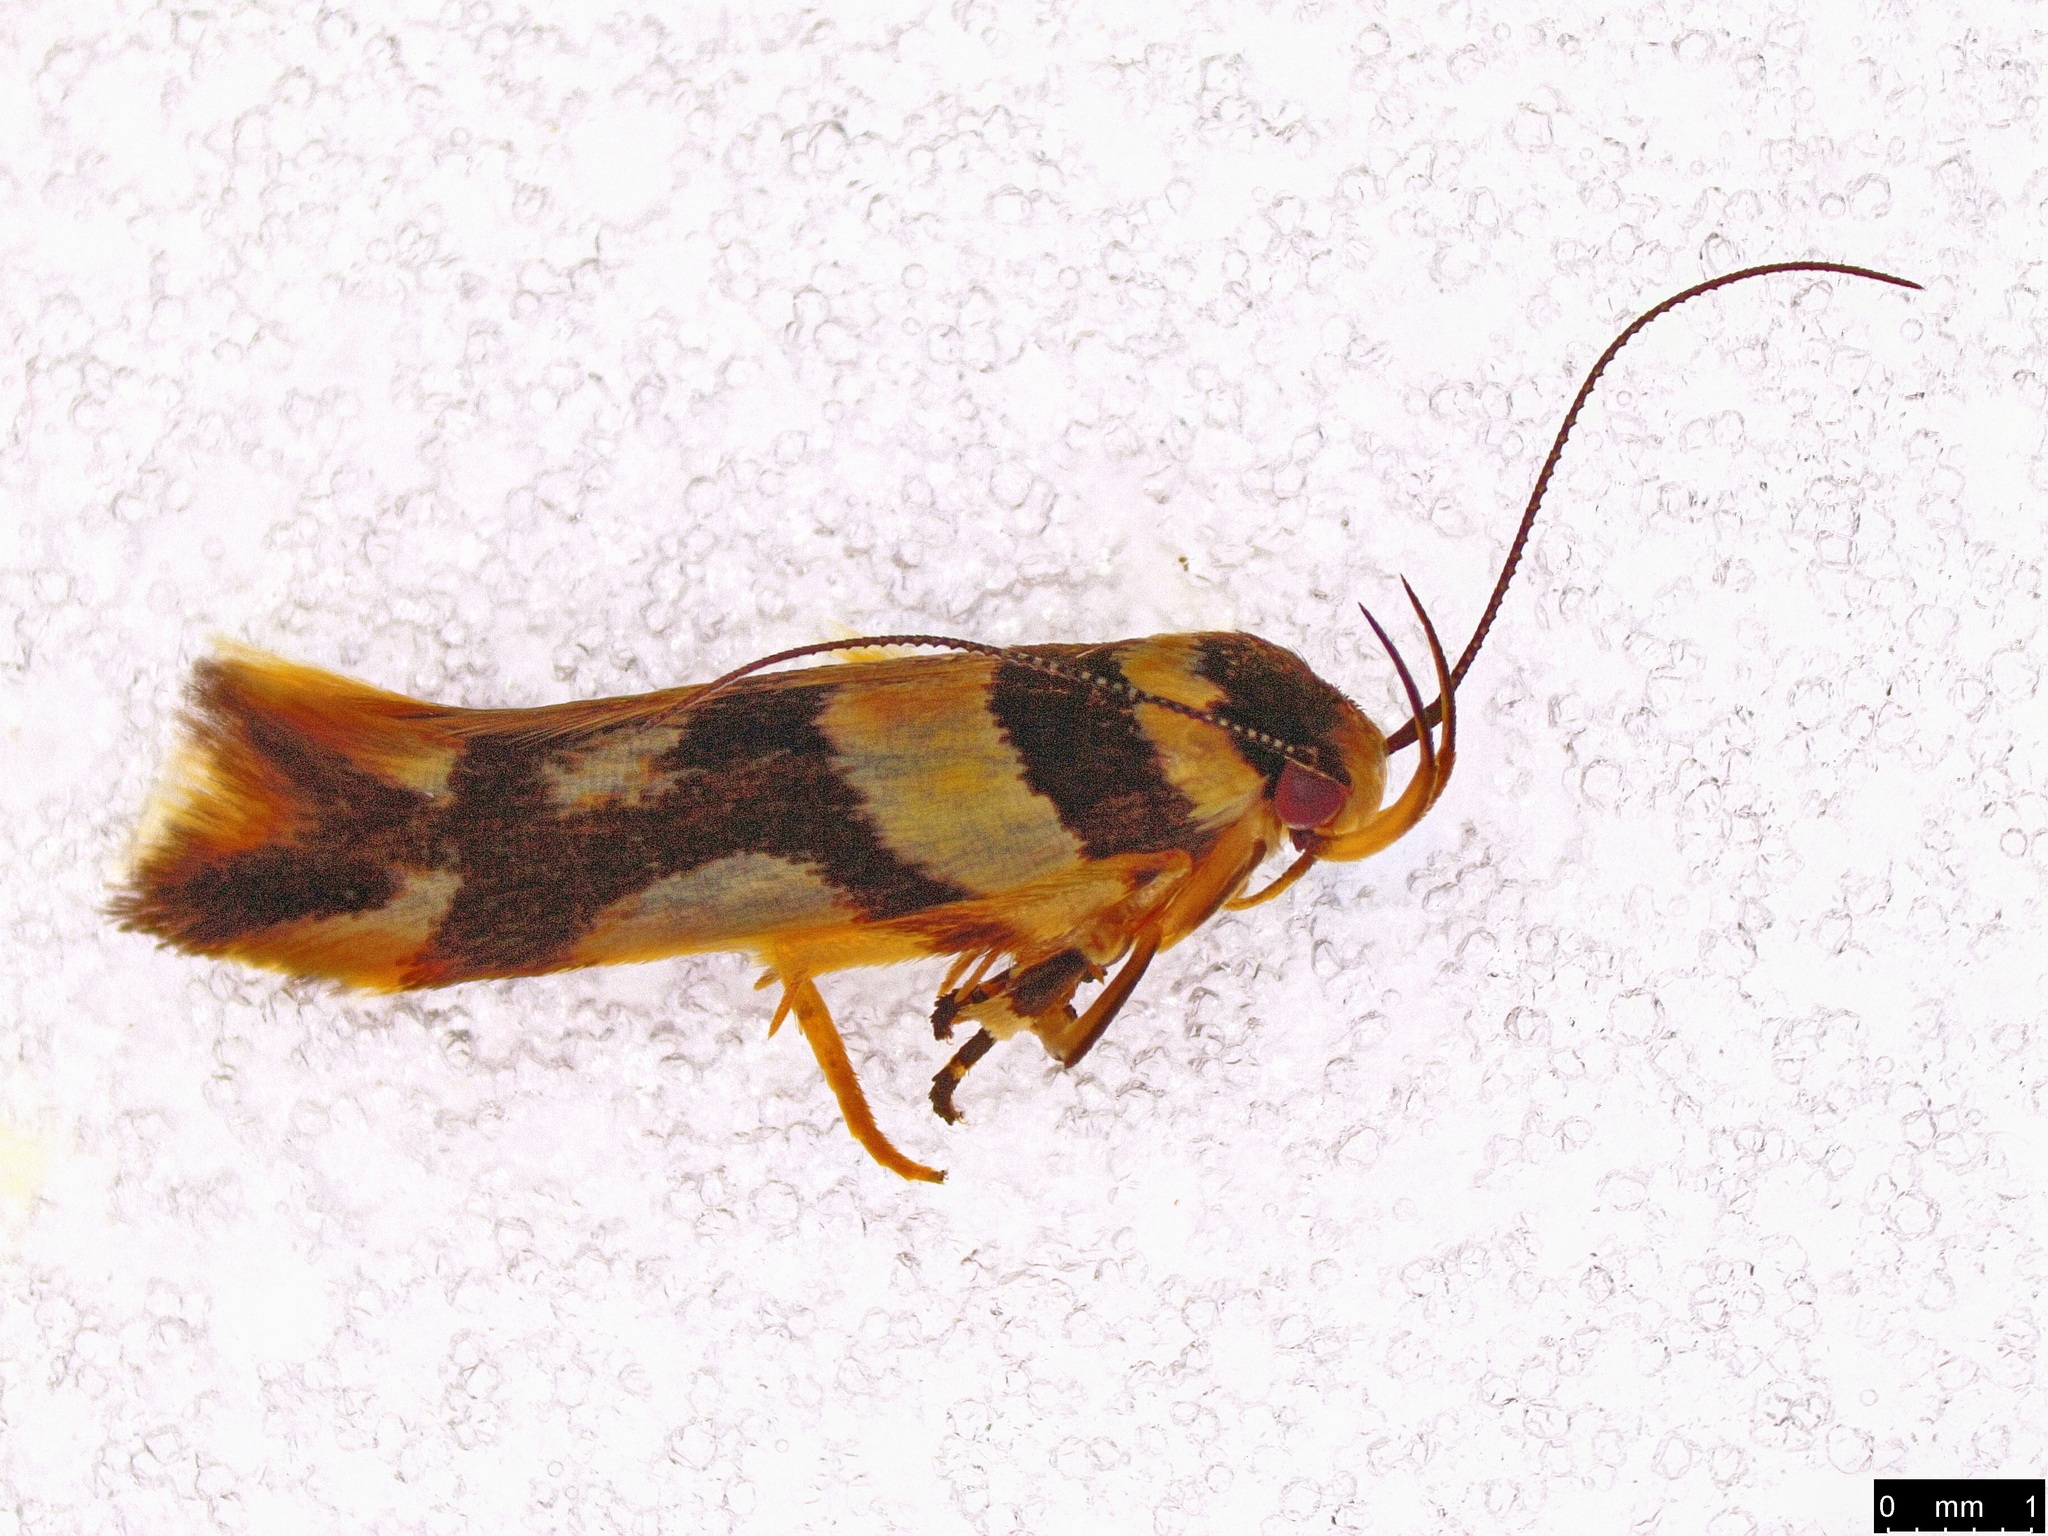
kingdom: Animalia
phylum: Arthropoda
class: Insecta
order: Lepidoptera
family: Cosmopterigidae
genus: Macrobathra
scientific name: Macrobathra desmotoma
